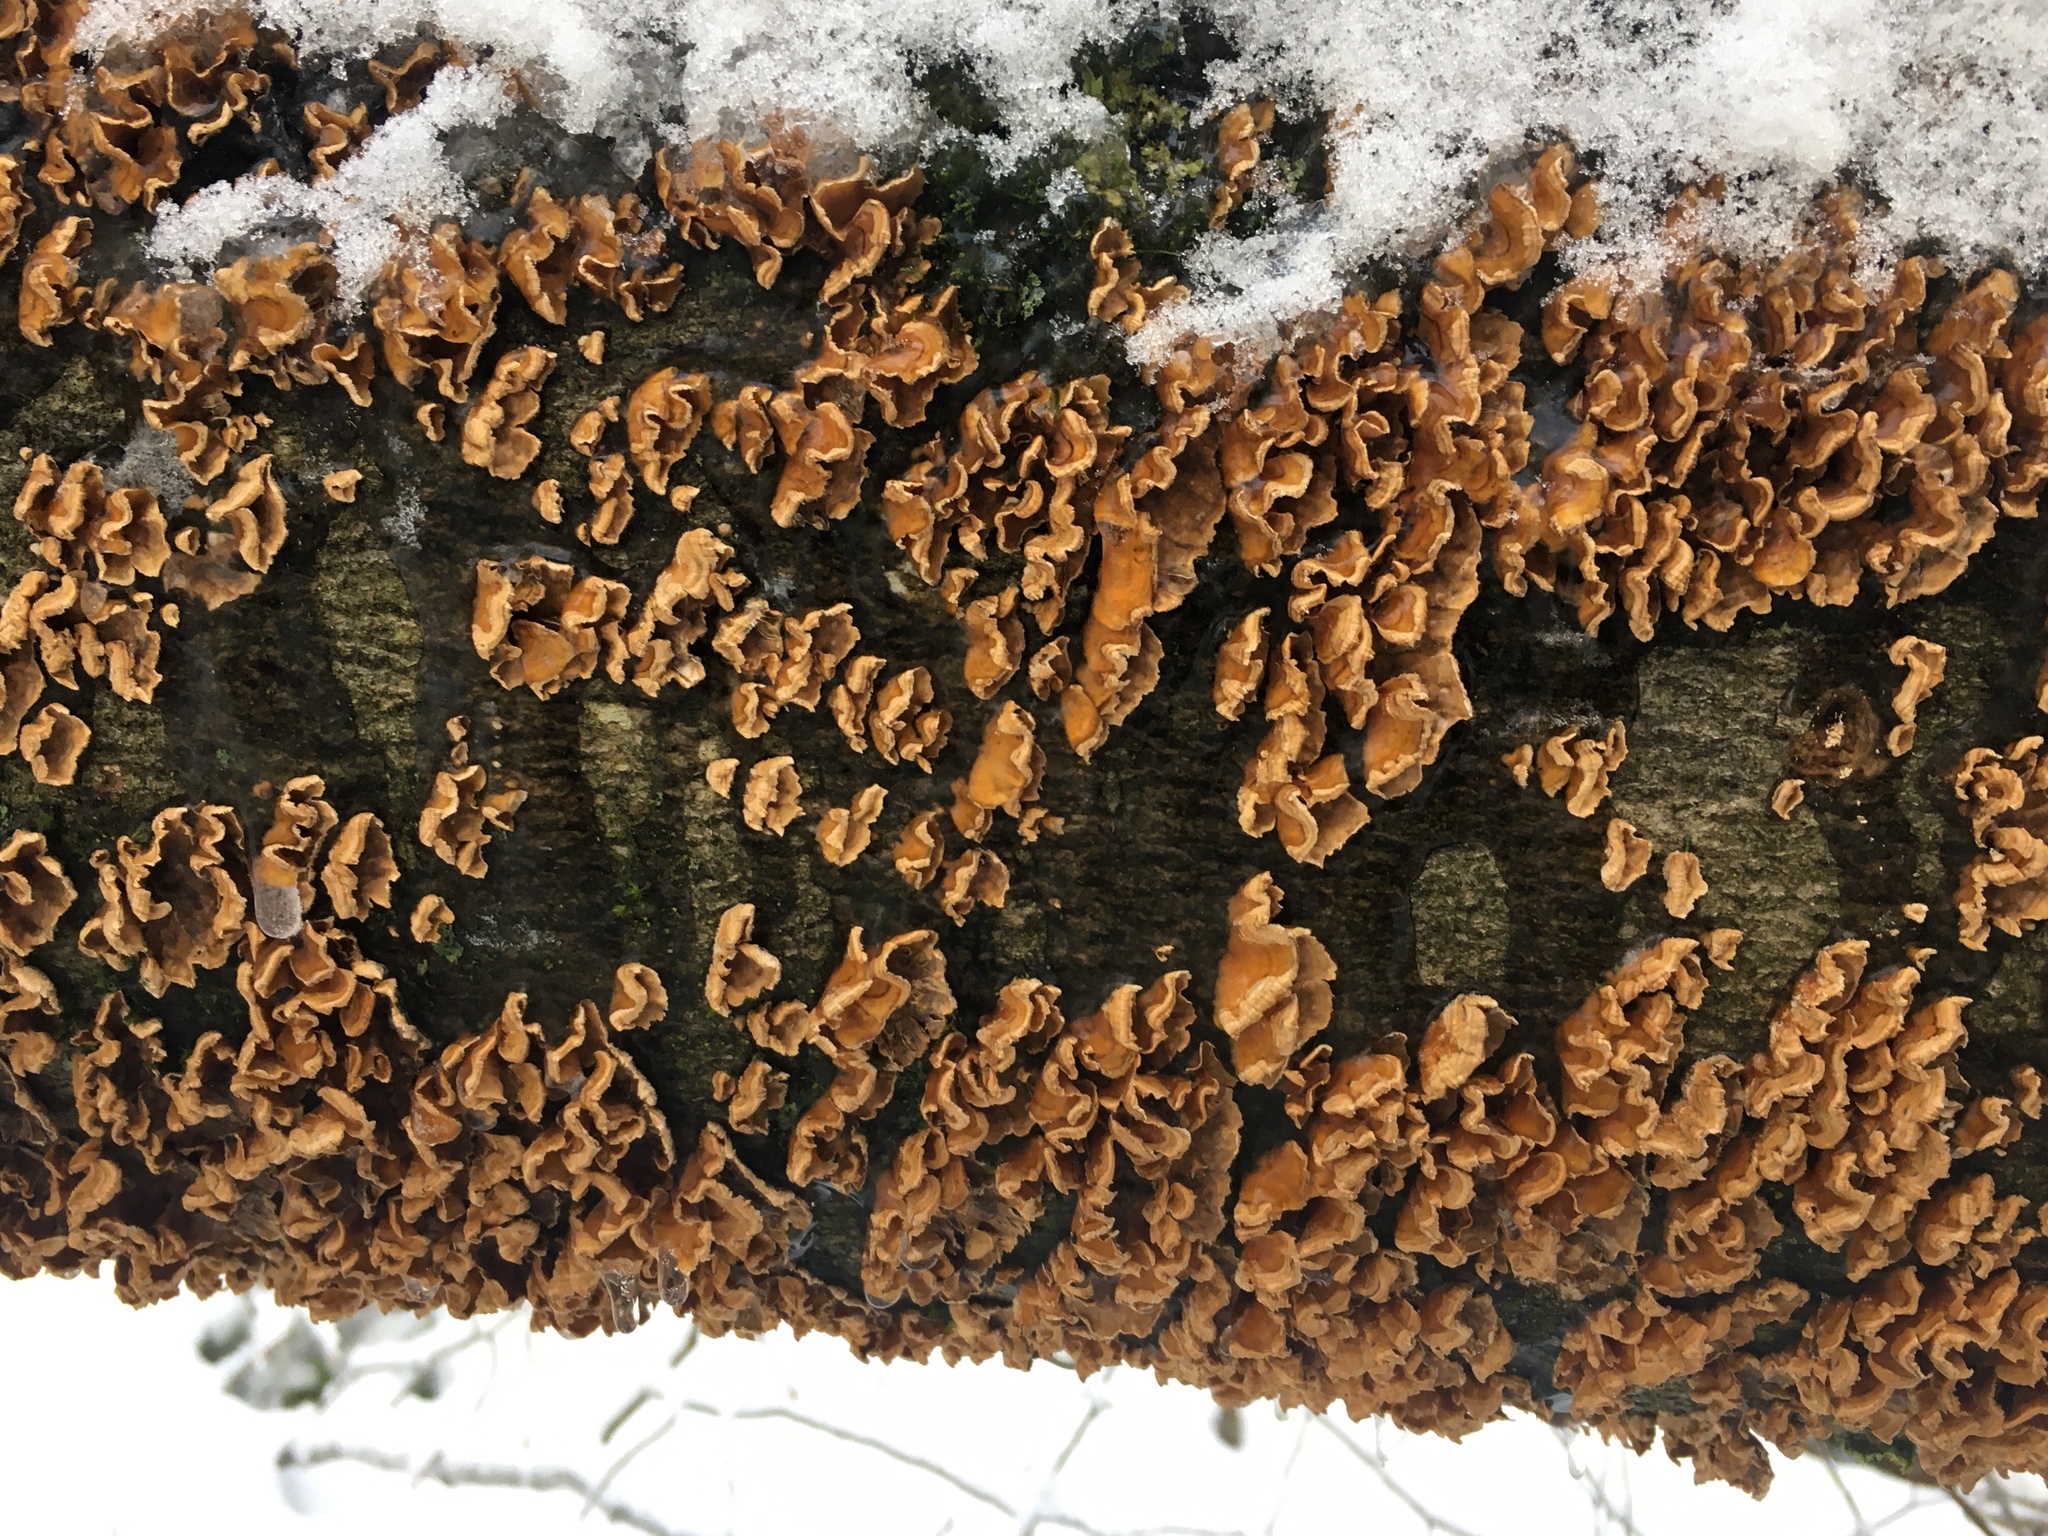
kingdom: Fungi
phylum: Basidiomycota
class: Agaricomycetes
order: Russulales
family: Stereaceae
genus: Stereum
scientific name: Stereum complicatum
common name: Crowded parchment
